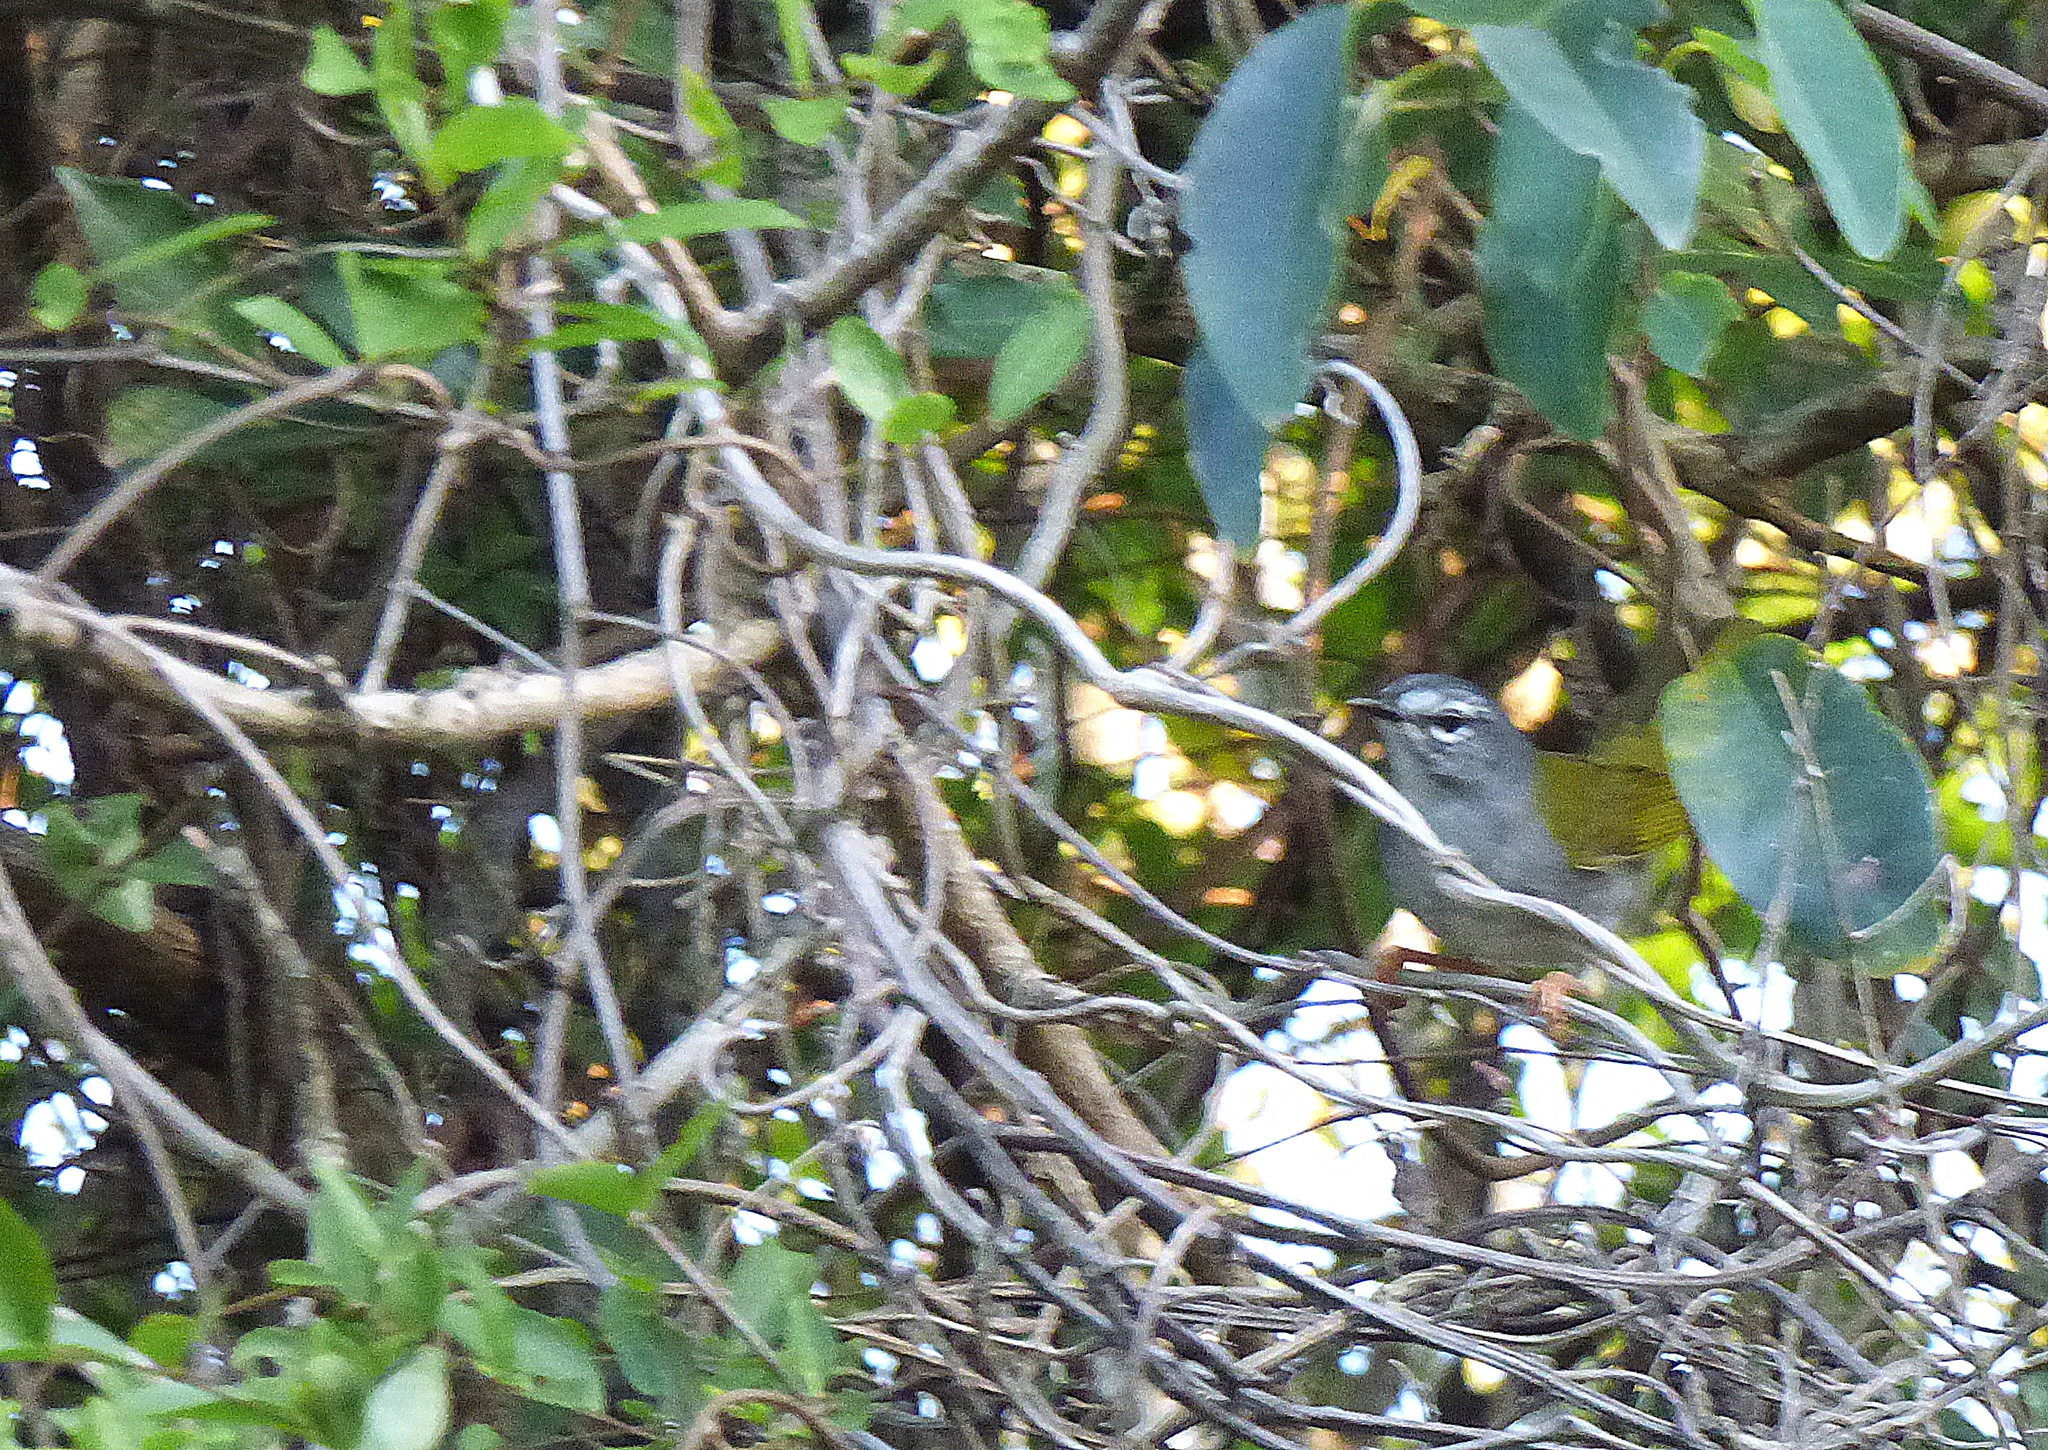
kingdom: Animalia
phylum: Chordata
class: Aves
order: Passeriformes
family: Parulidae
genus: Myiothlypis
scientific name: Myiothlypis leucoblephara
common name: White-rimmed warbler
